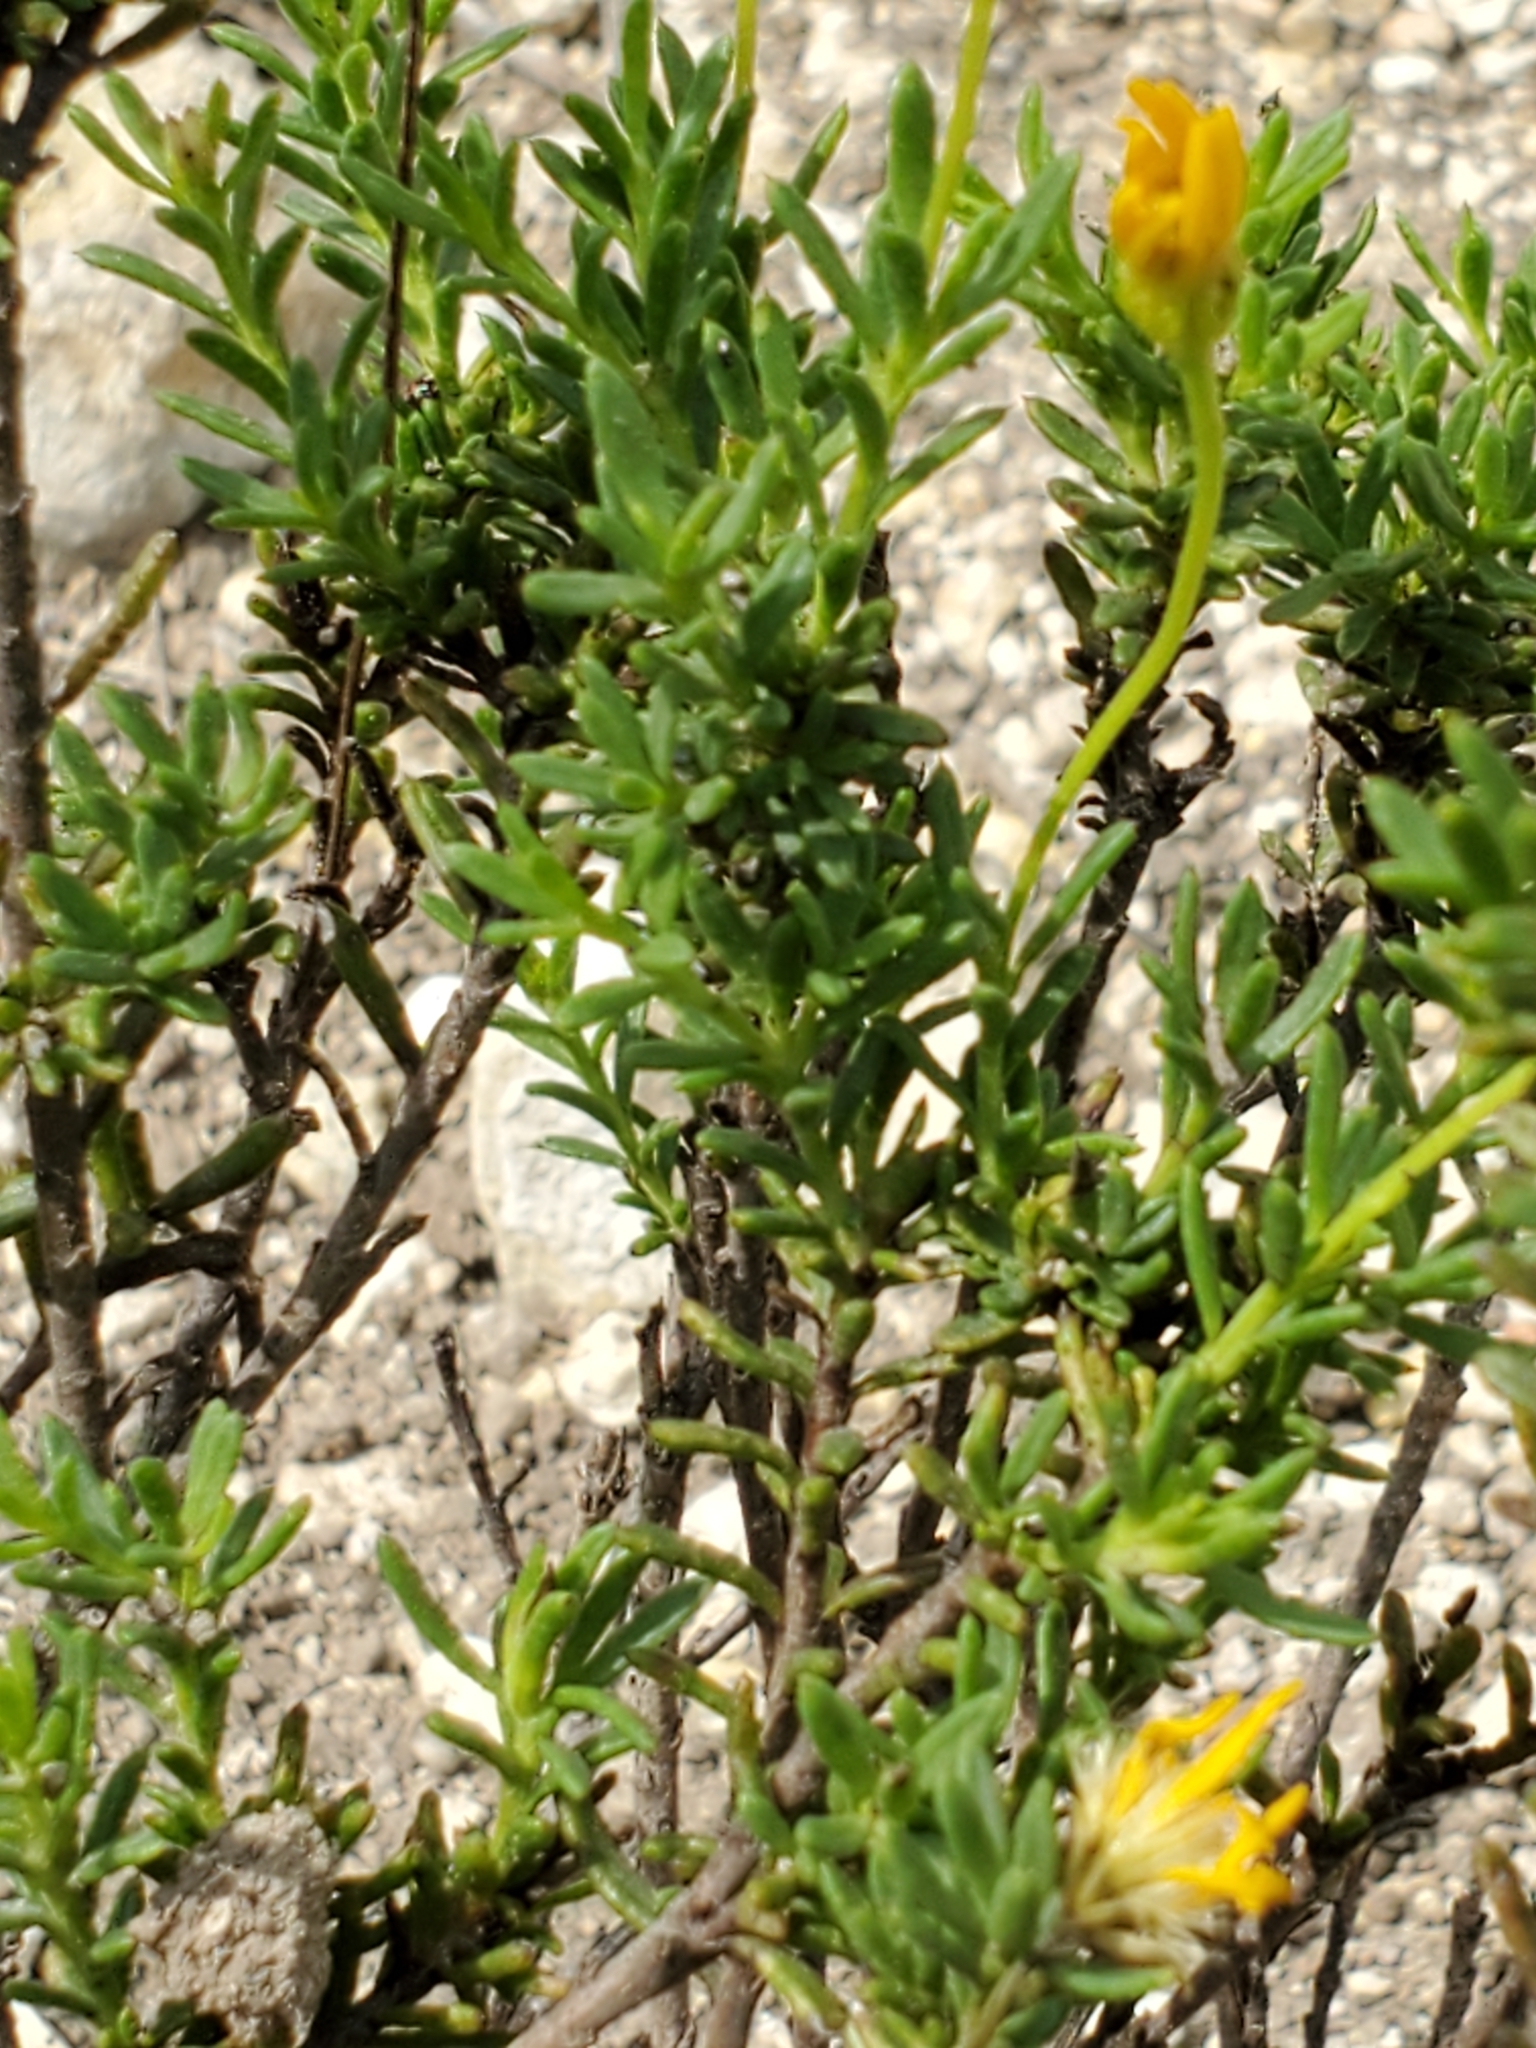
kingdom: Plantae
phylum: Tracheophyta
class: Magnoliopsida
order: Asterales
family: Asteraceae
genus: Chrysactinia
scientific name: Chrysactinia mexicana
